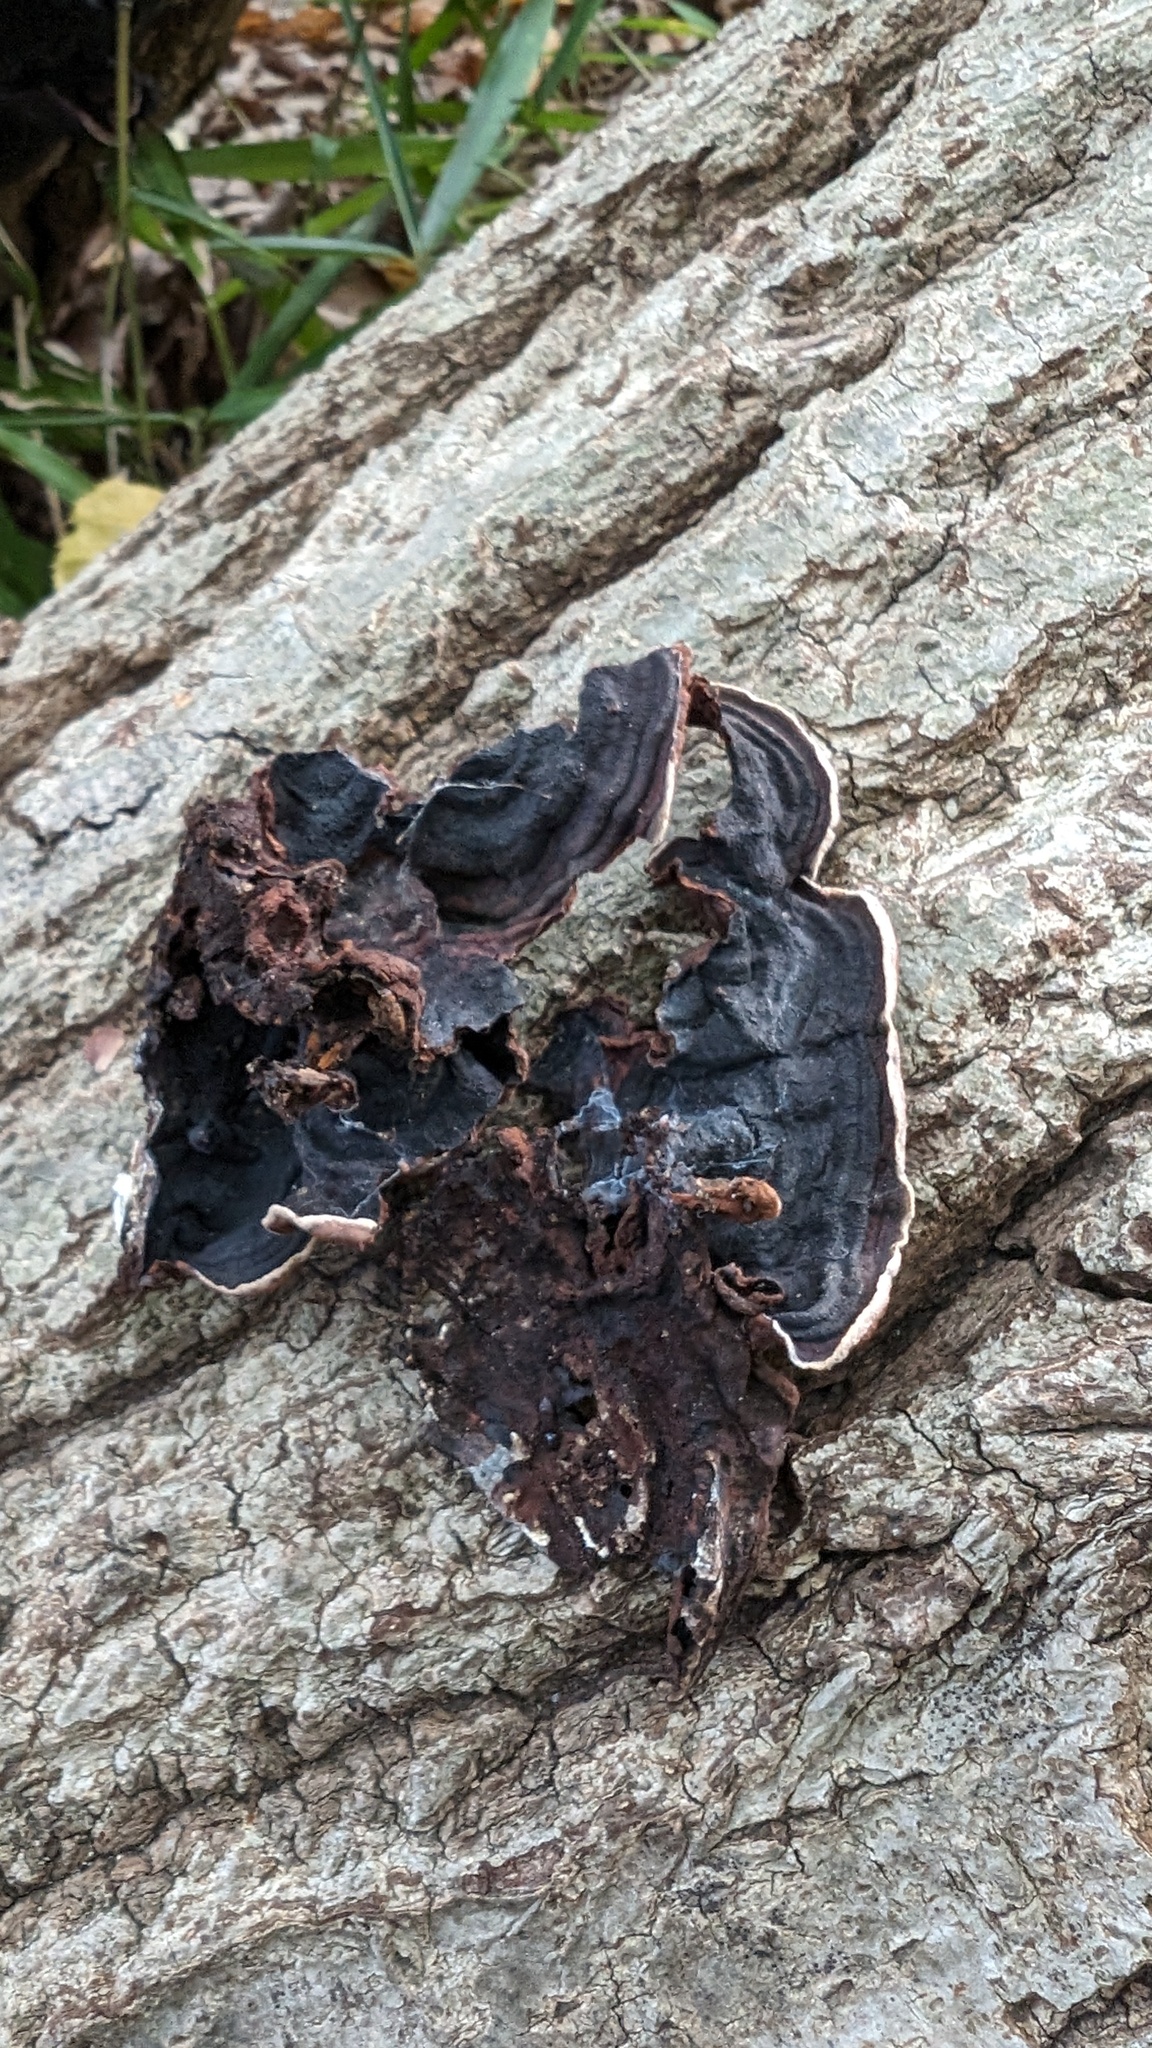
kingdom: Fungi
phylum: Basidiomycota
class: Agaricomycetes
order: Corticiales
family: Punctulariaceae
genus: Punctularia
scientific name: Punctularia strigosozonata
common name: White-rot fungus
